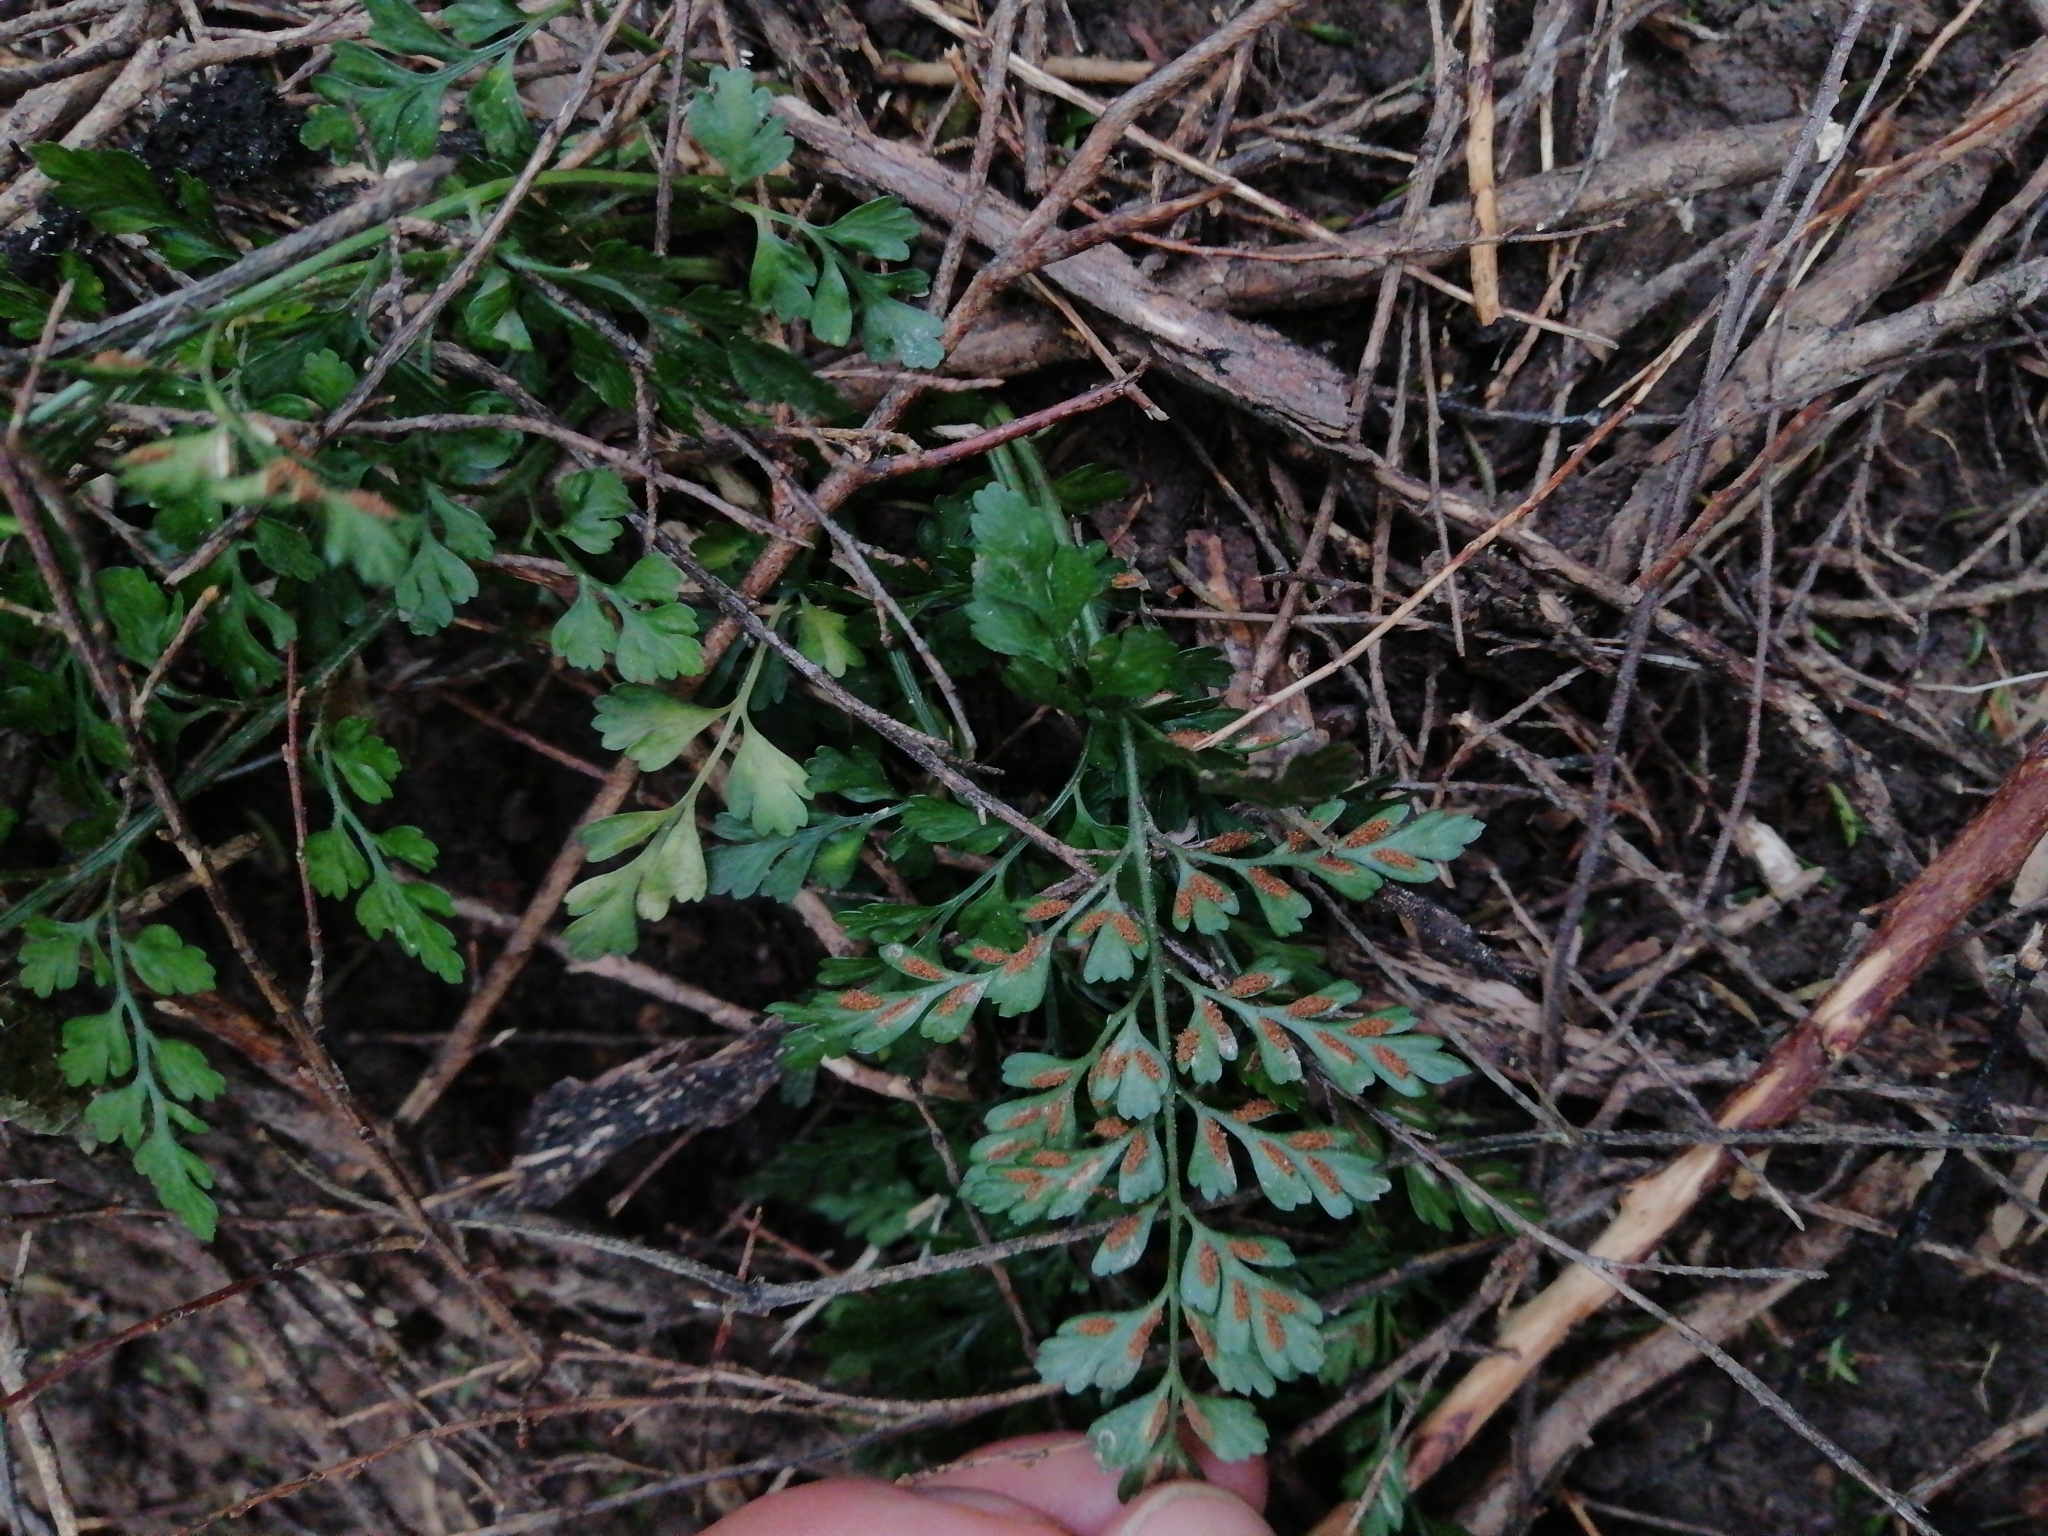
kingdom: Plantae
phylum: Tracheophyta
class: Polypodiopsida
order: Polypodiales
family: Aspleniaceae
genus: Asplenium
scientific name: Asplenium hookerianum
